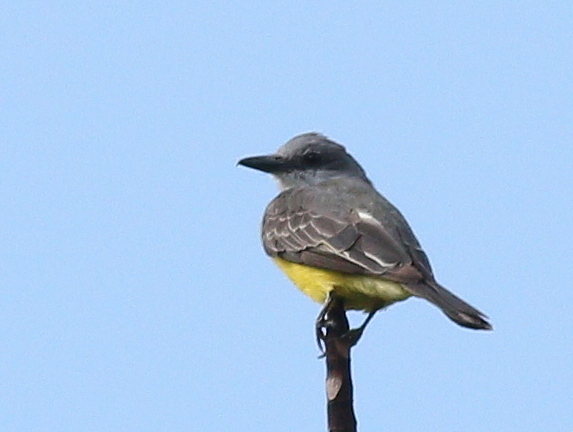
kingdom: Animalia
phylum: Chordata
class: Aves
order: Passeriformes
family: Tyrannidae
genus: Tyrannus
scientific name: Tyrannus melancholicus
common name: Tropical kingbird
